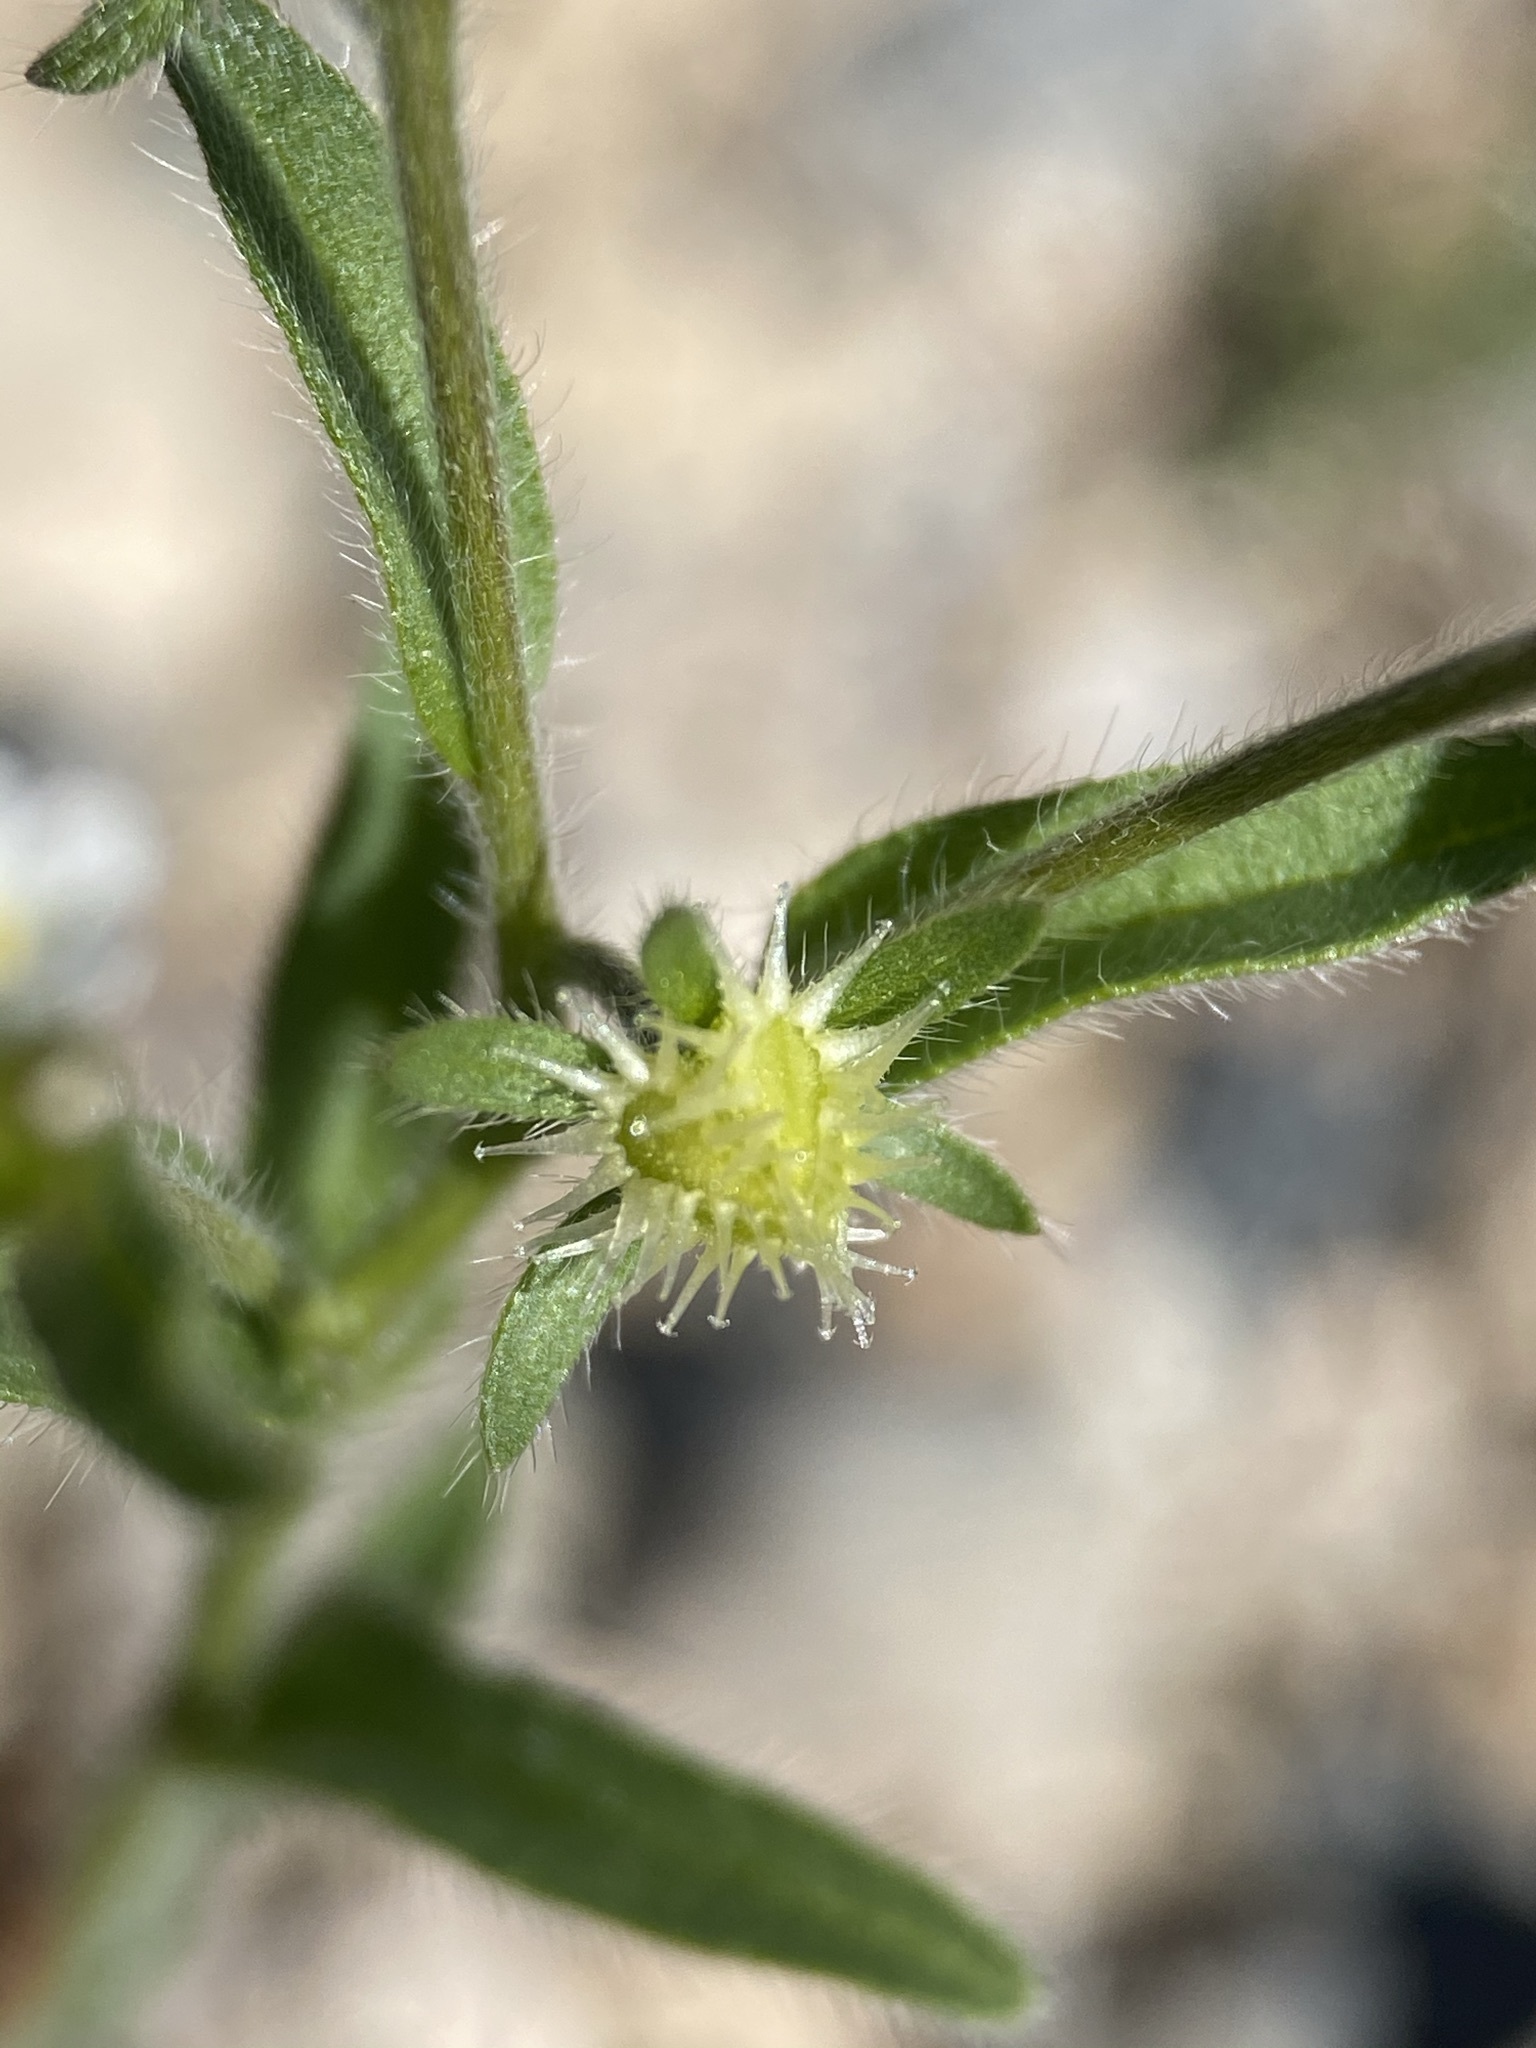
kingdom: Plantae
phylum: Tracheophyta
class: Magnoliopsida
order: Boraginales
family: Boraginaceae
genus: Lappula
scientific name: Lappula occidentalis
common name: Western stickseed
